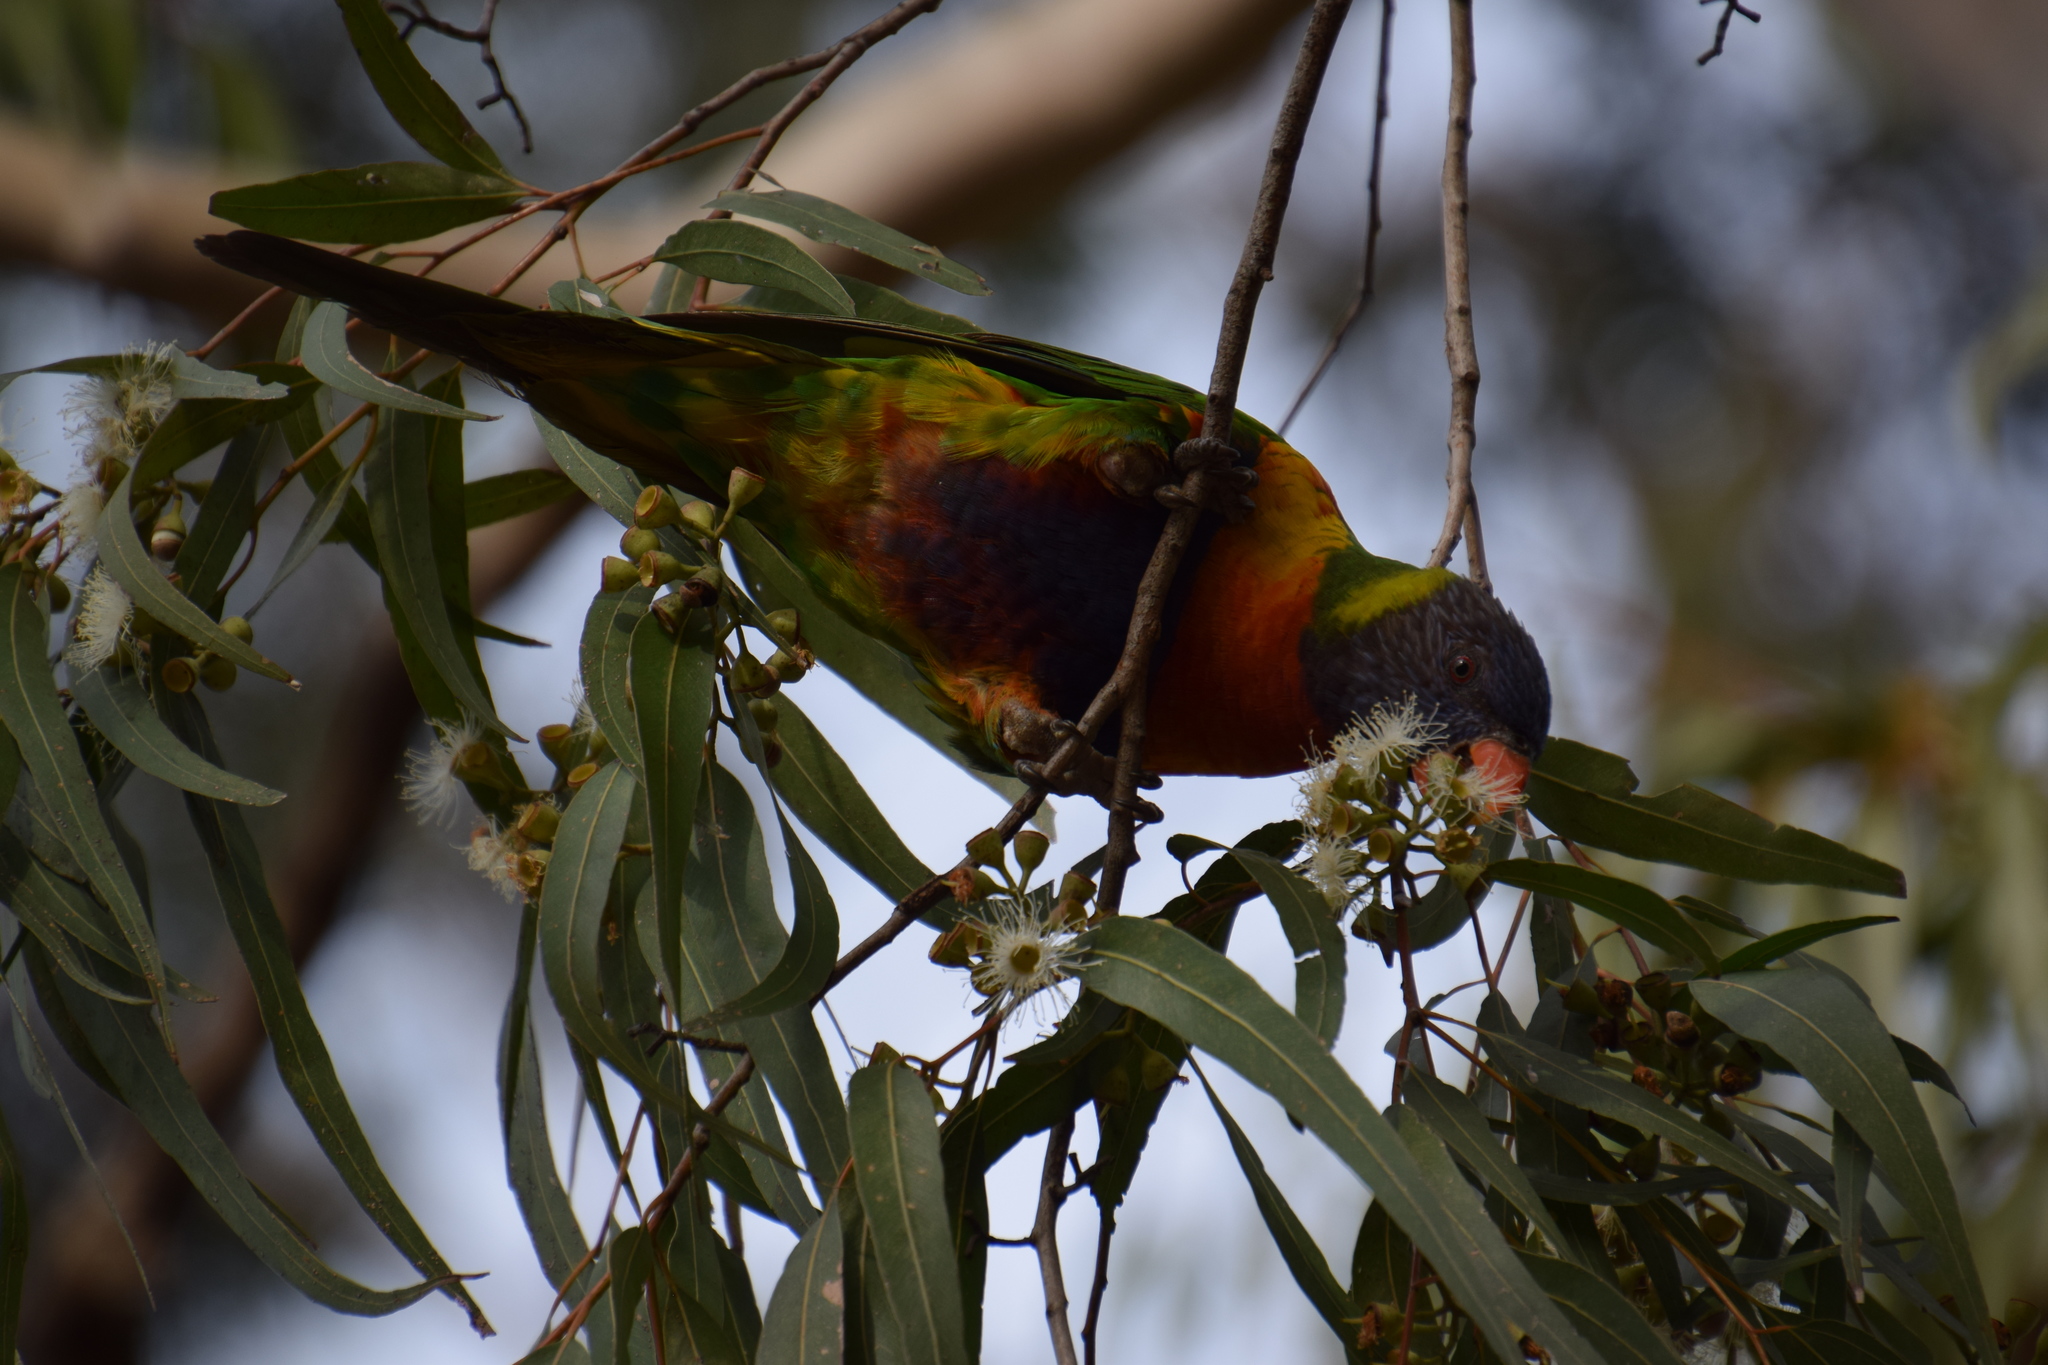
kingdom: Animalia
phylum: Chordata
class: Aves
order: Psittaciformes
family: Psittacidae
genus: Trichoglossus
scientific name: Trichoglossus haematodus
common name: Coconut lorikeet
